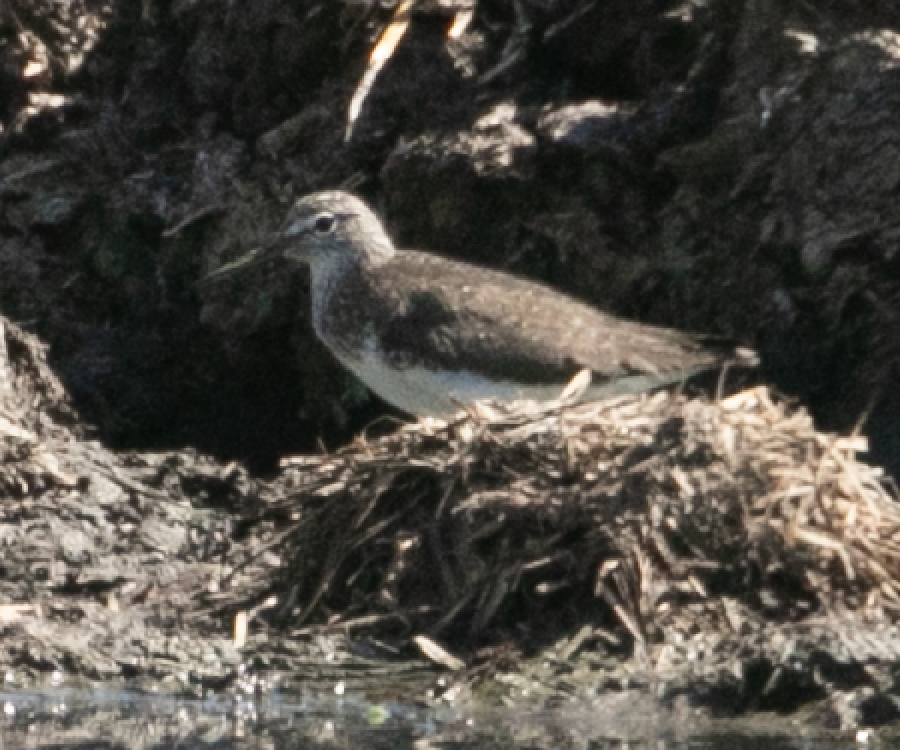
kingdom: Animalia
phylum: Chordata
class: Aves
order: Charadriiformes
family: Scolopacidae
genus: Tringa
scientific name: Tringa ochropus
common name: Green sandpiper
